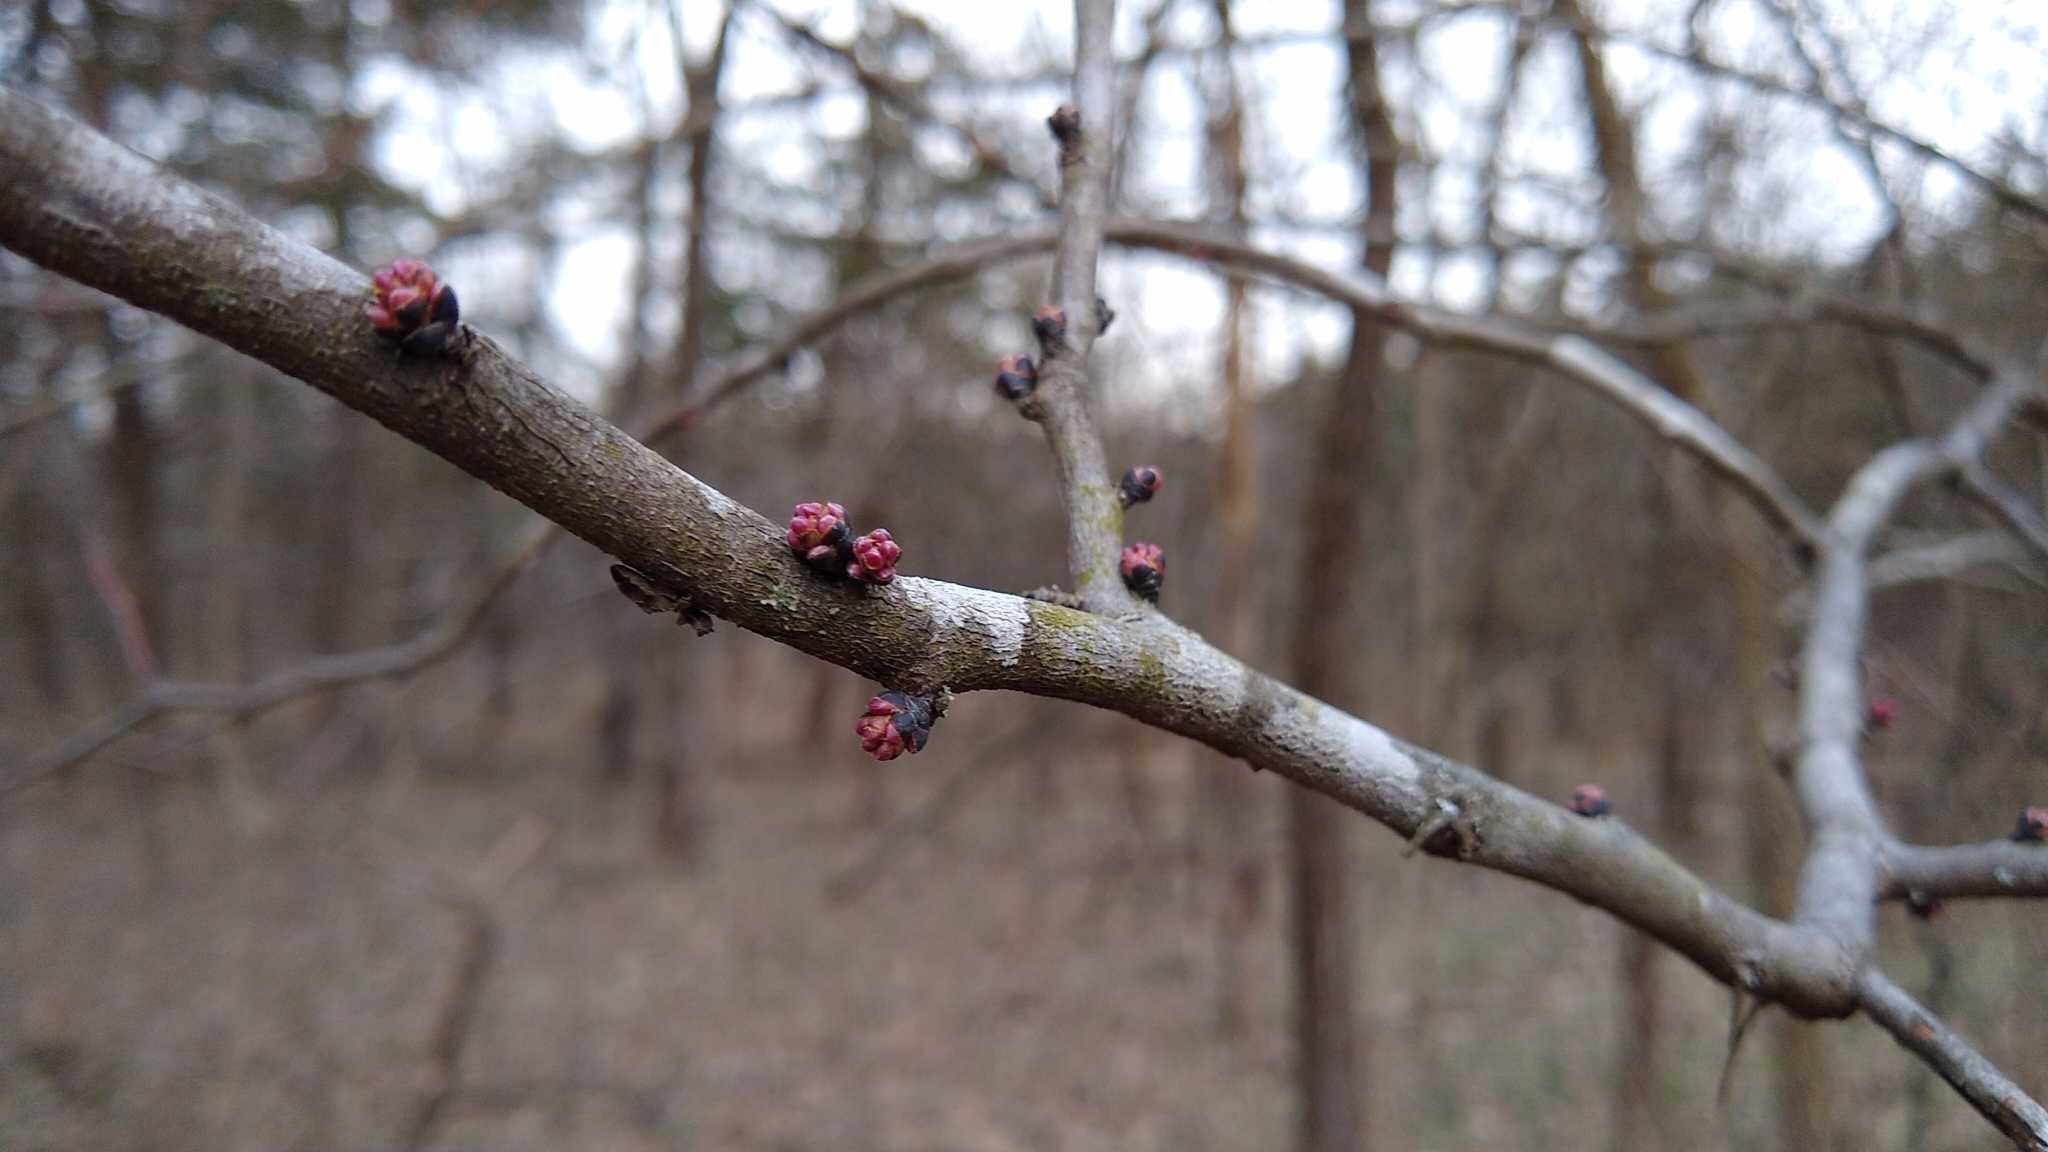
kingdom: Plantae
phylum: Tracheophyta
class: Magnoliopsida
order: Fabales
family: Fabaceae
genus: Cercis
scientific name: Cercis canadensis
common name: Eastern redbud
